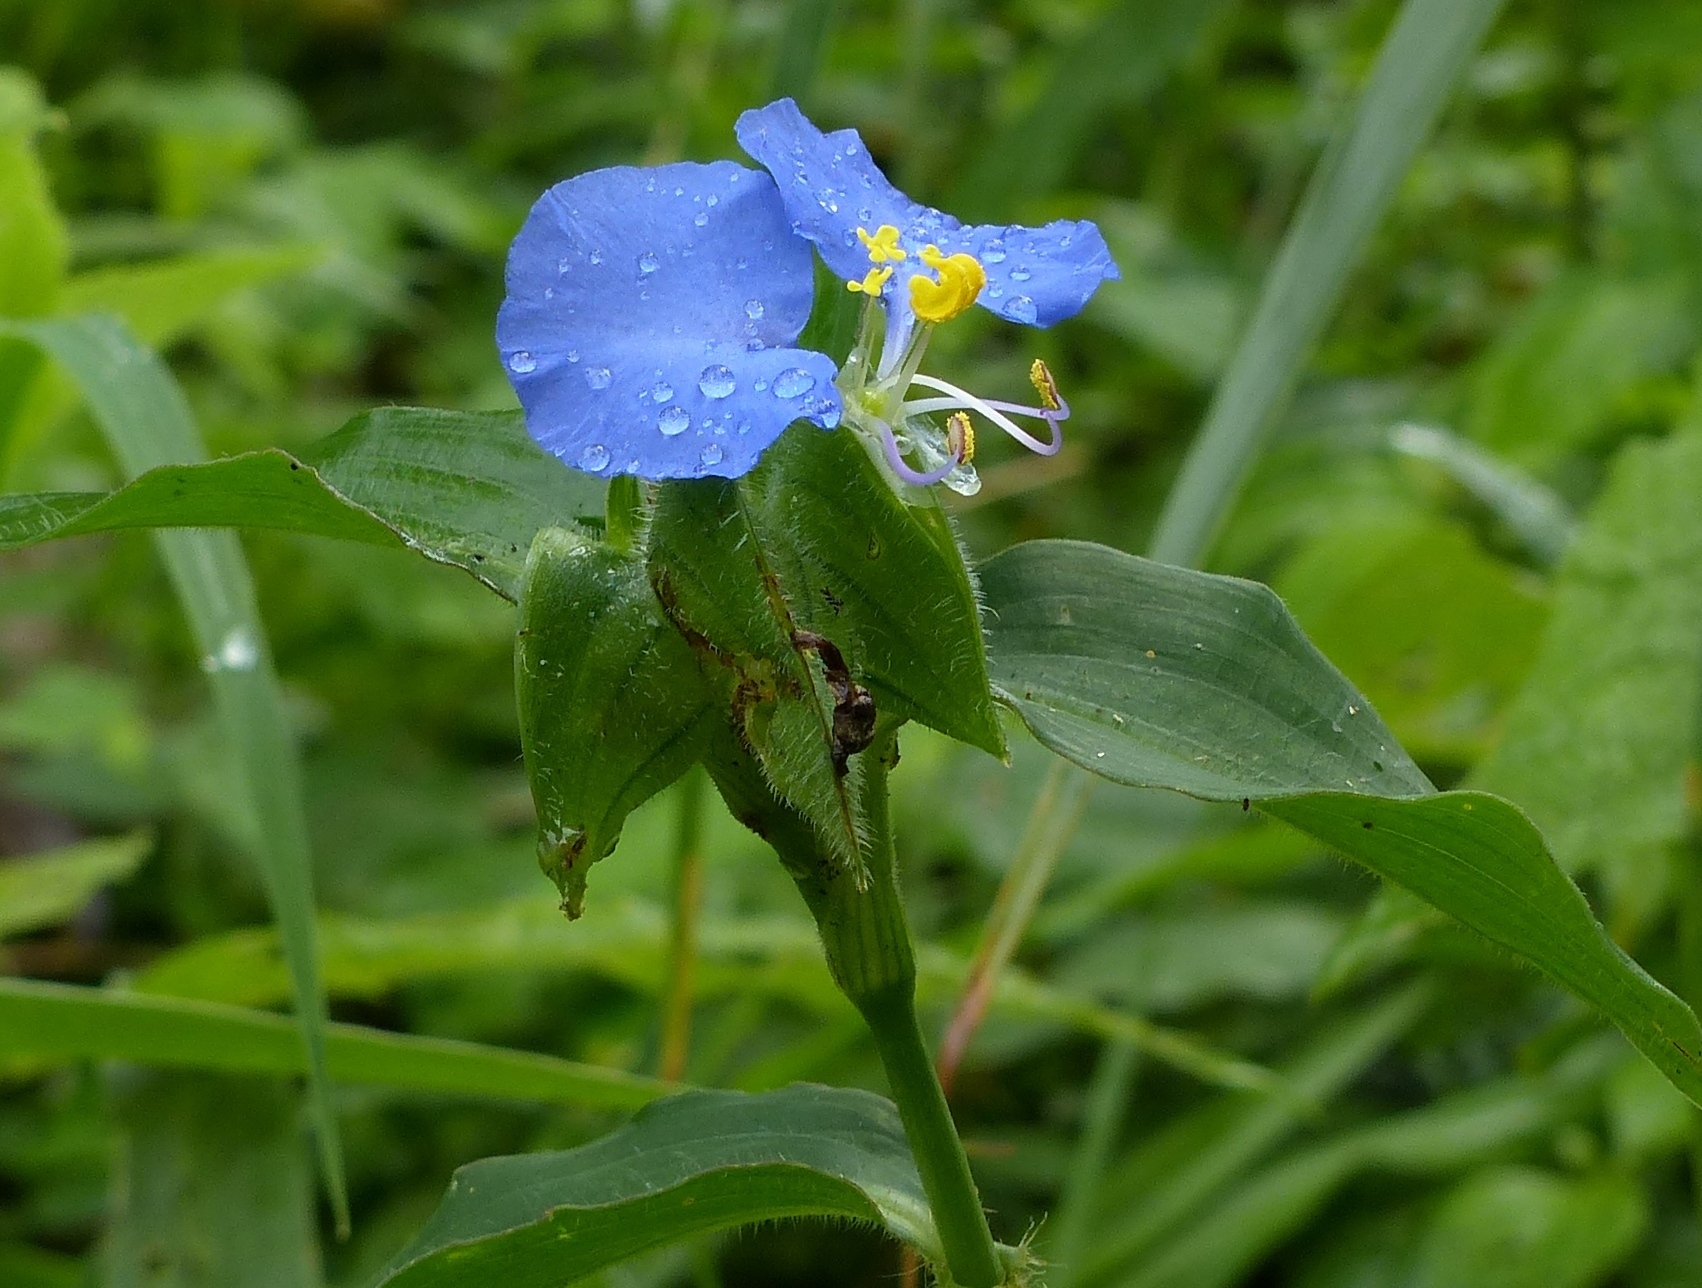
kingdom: Plantae
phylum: Tracheophyta
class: Liliopsida
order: Commelinales
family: Commelinaceae
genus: Commelina
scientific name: Commelina erecta
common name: Blousel blommetjie
